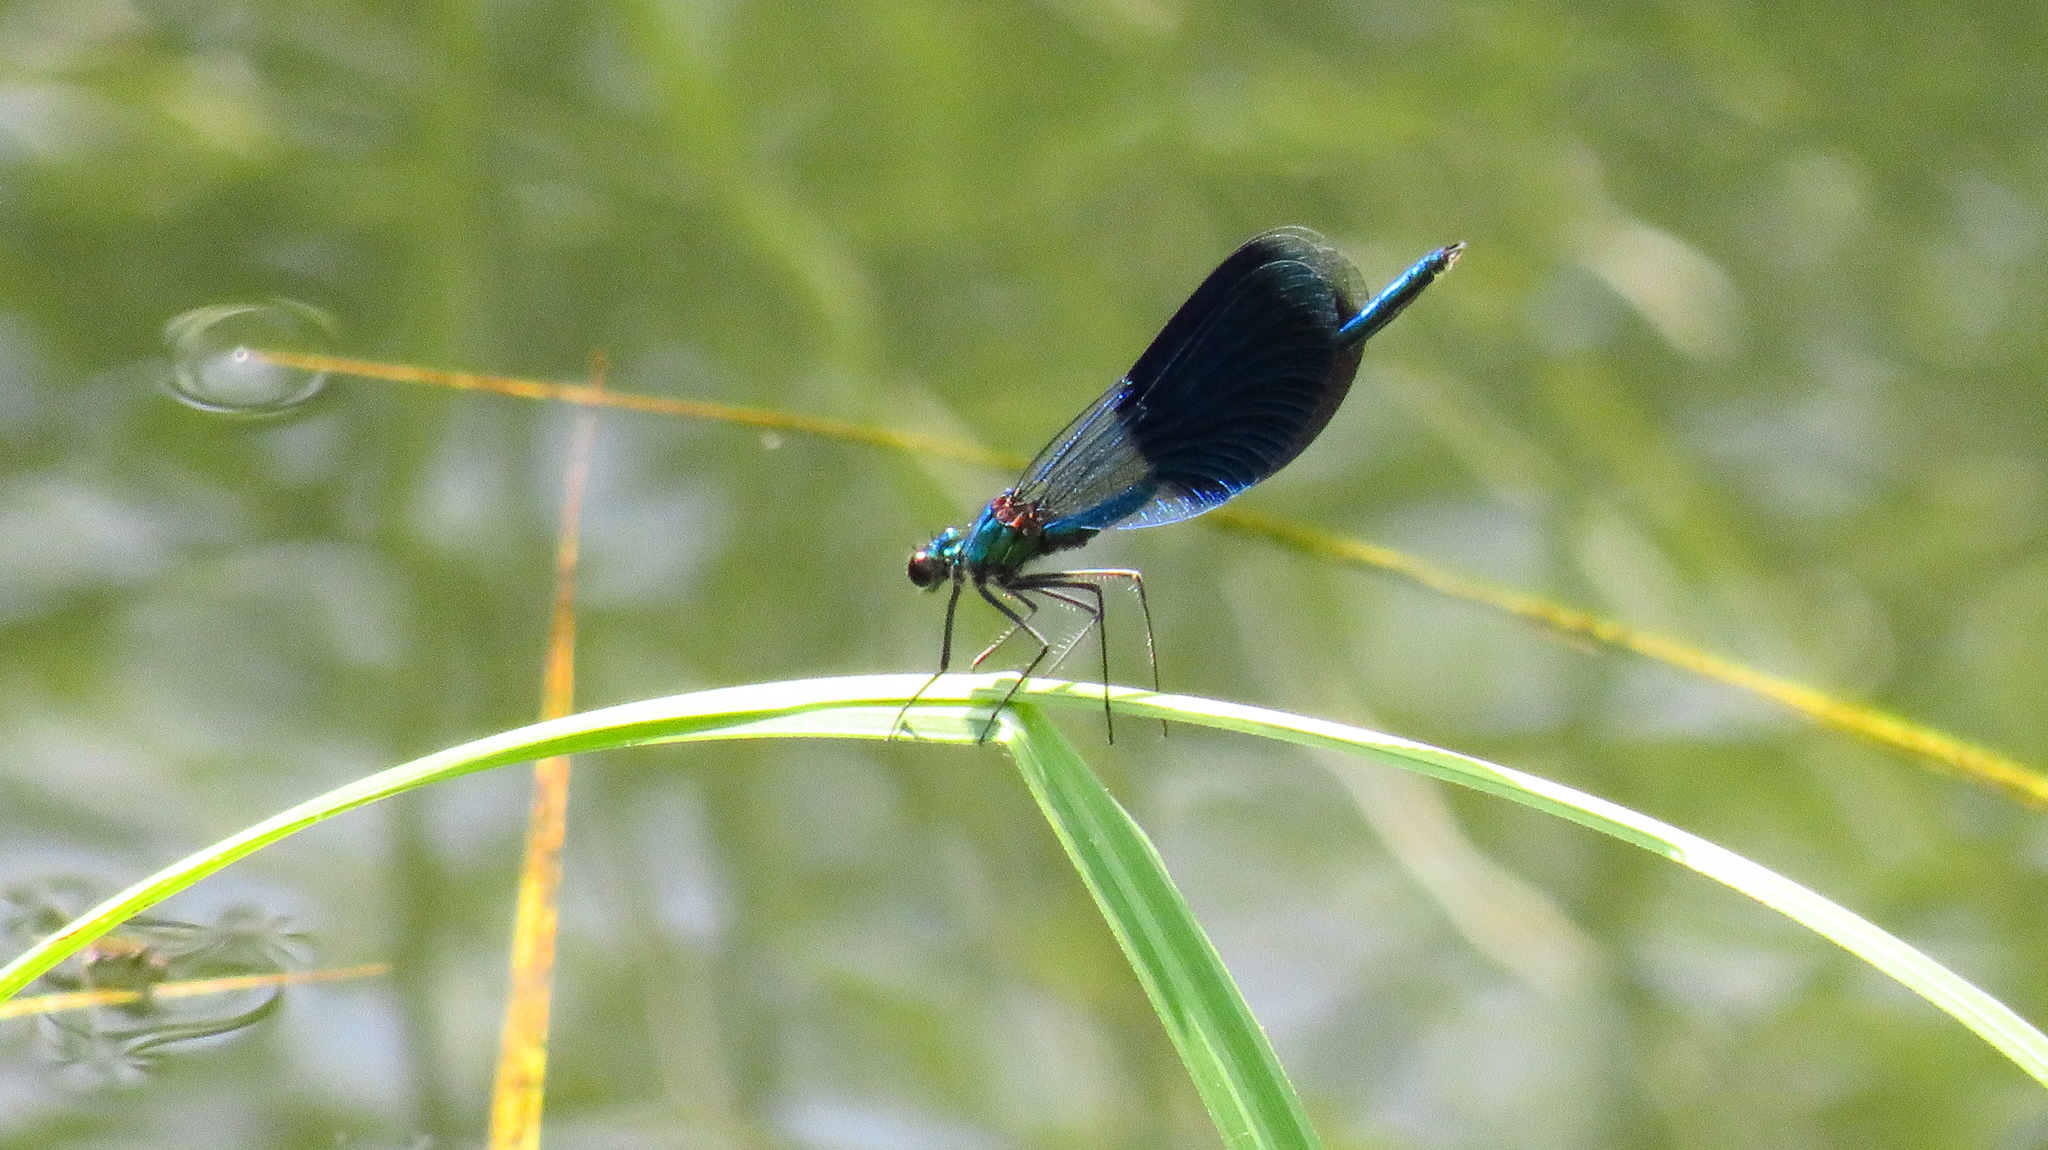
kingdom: Animalia
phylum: Arthropoda
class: Insecta
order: Odonata
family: Calopterygidae
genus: Calopteryx
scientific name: Calopteryx splendens
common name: Banded demoiselle
